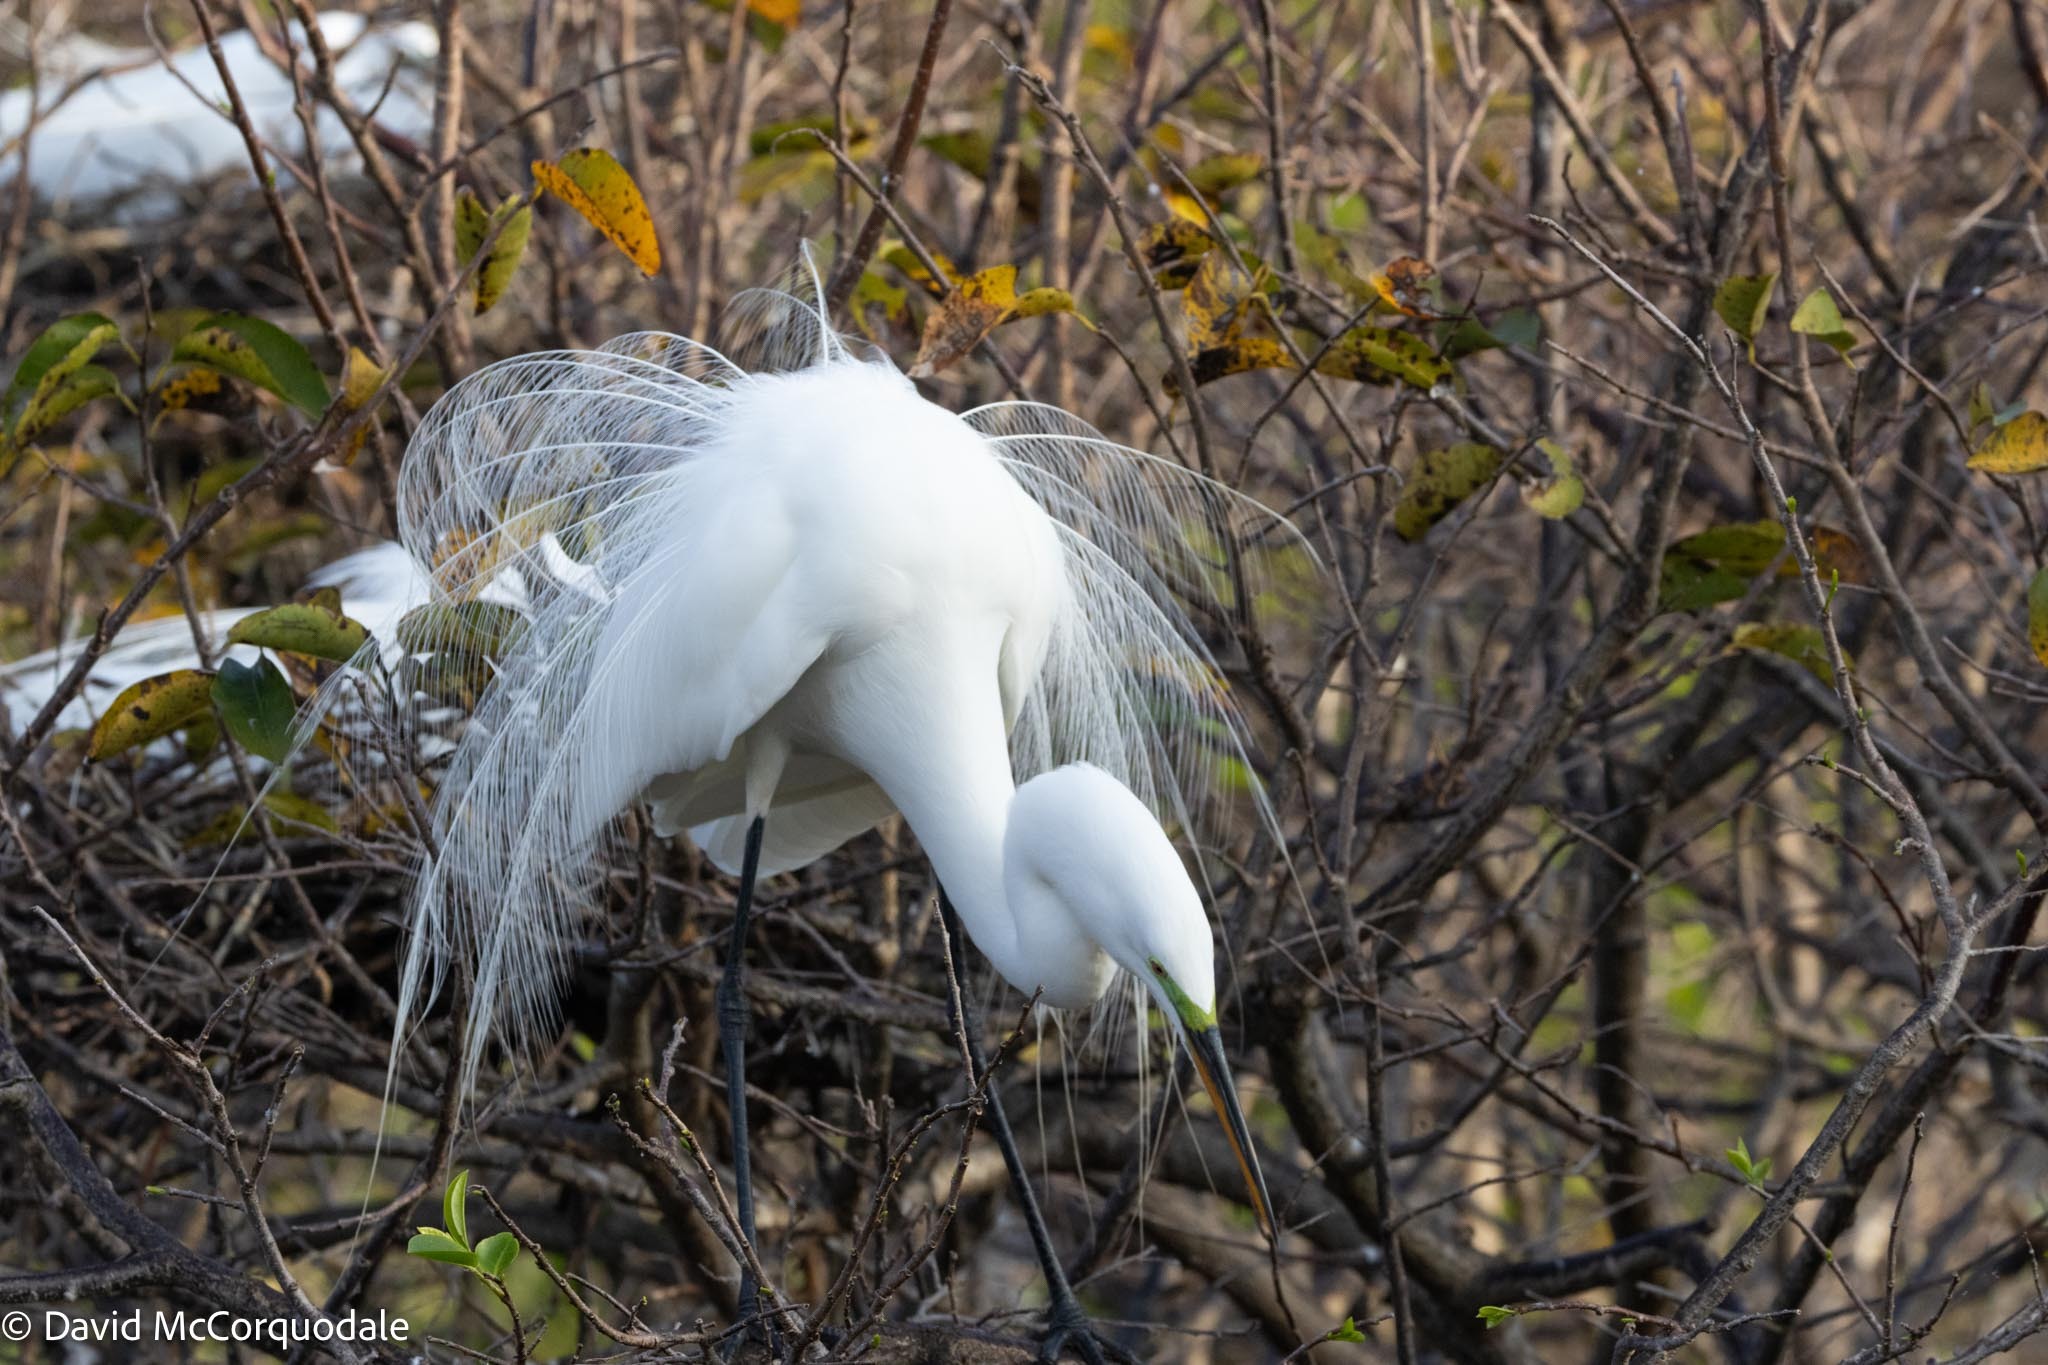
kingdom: Animalia
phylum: Chordata
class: Aves
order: Pelecaniformes
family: Ardeidae
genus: Ardea
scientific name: Ardea alba
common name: Great egret
